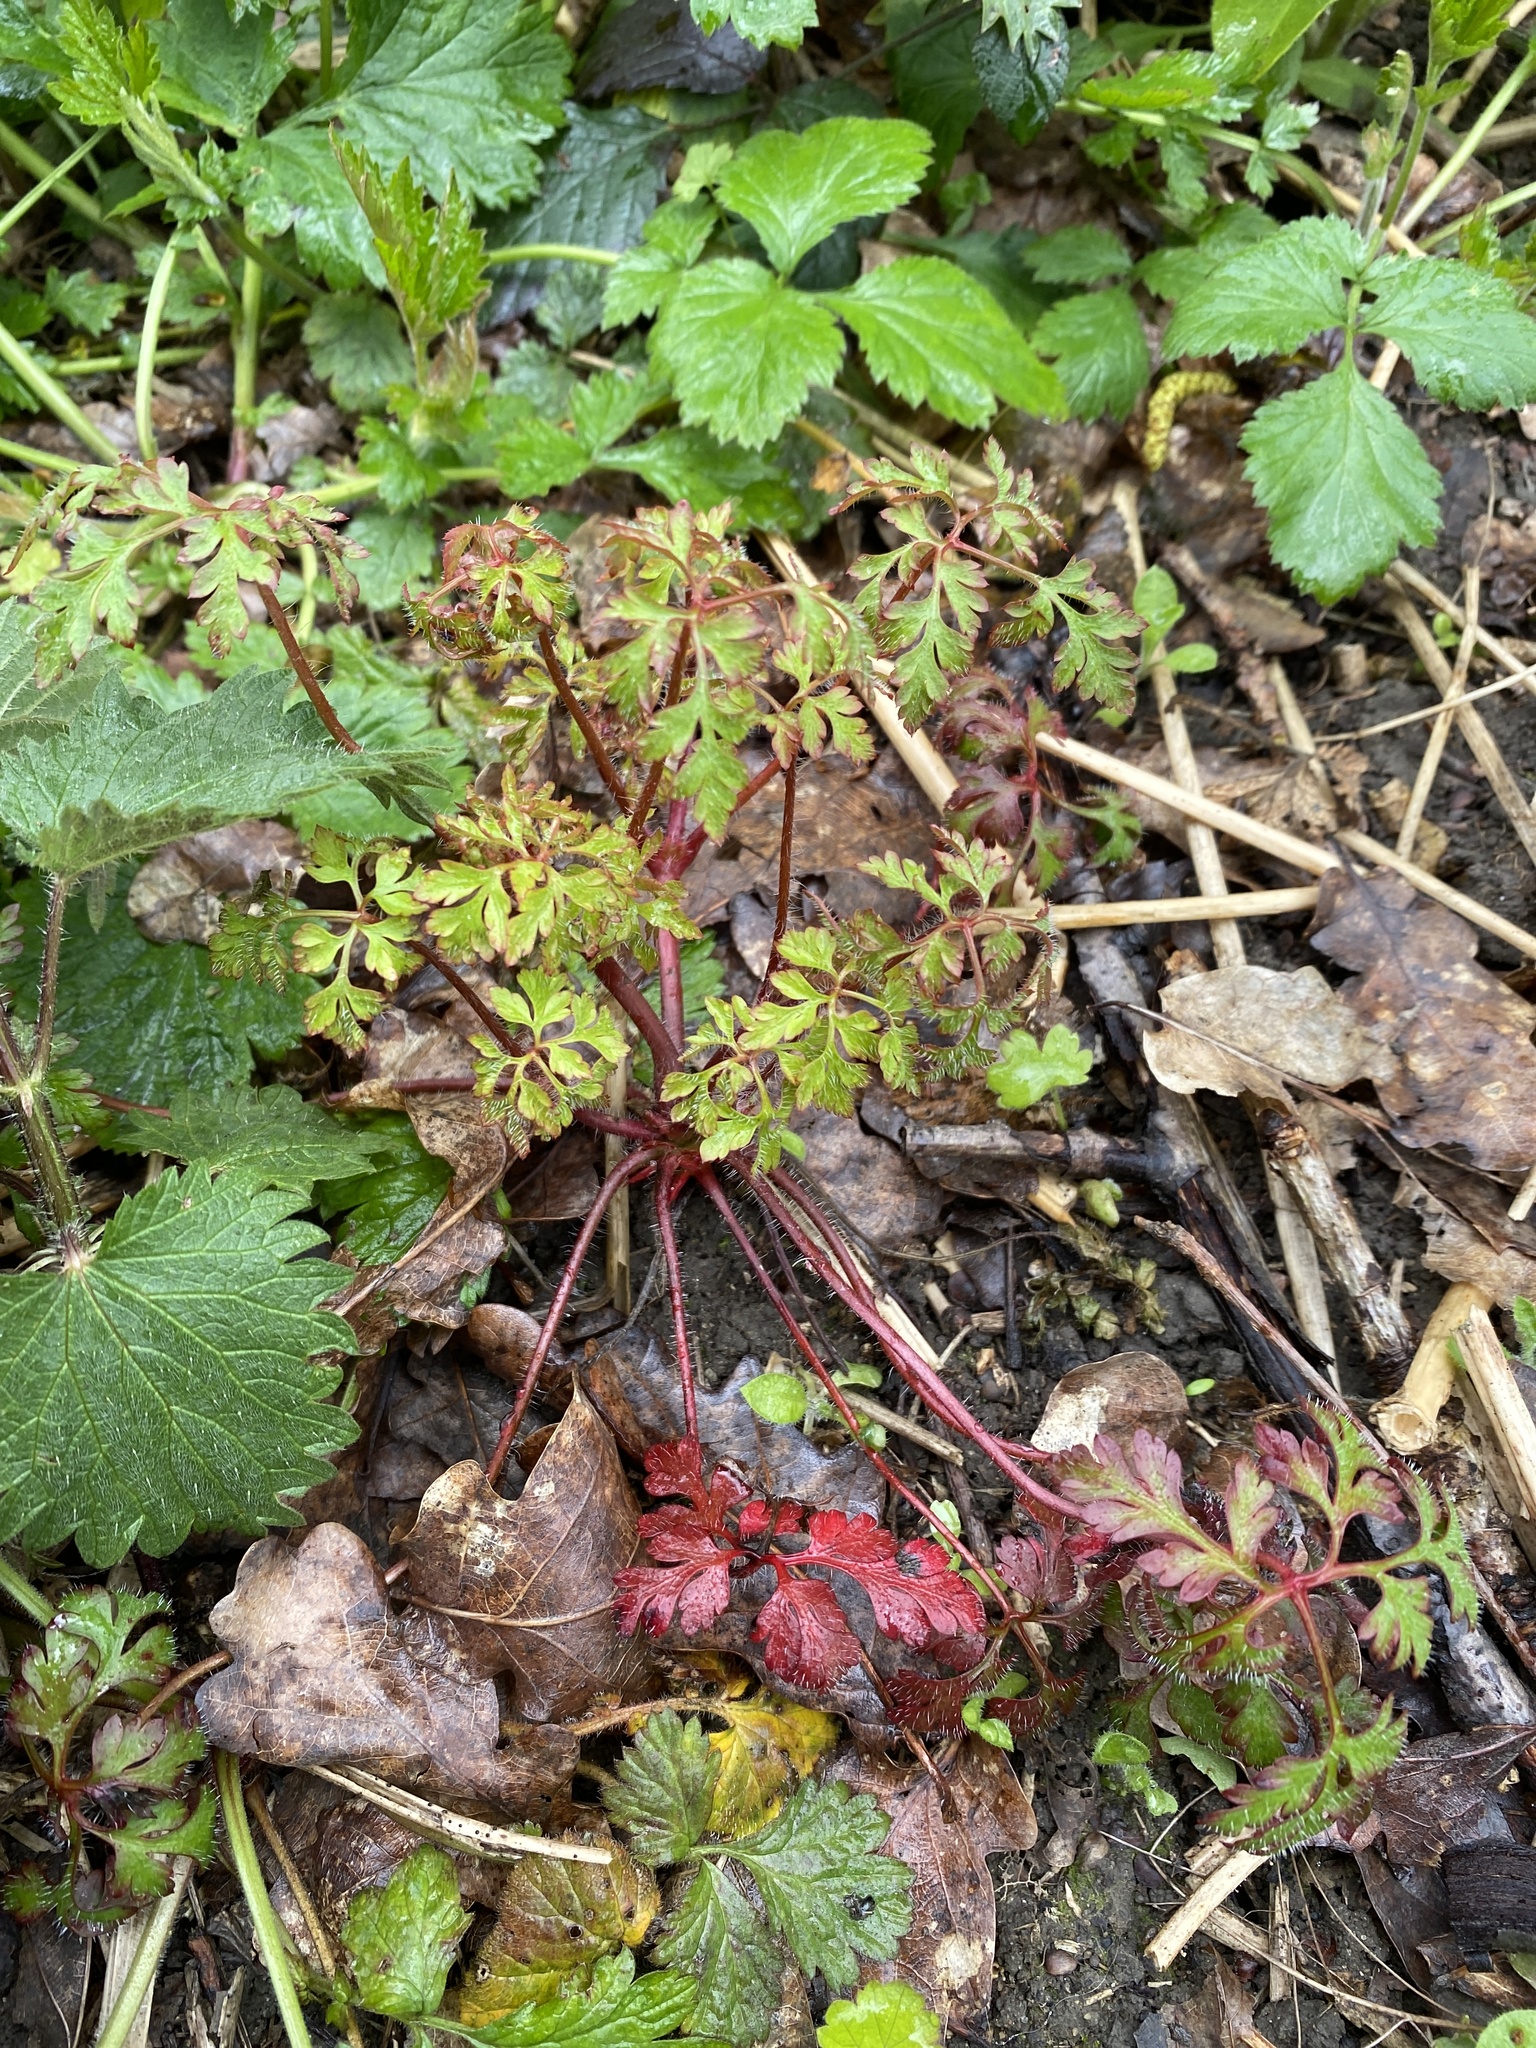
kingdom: Plantae
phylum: Tracheophyta
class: Magnoliopsida
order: Geraniales
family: Geraniaceae
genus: Geranium
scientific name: Geranium robertianum
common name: Herb-robert
